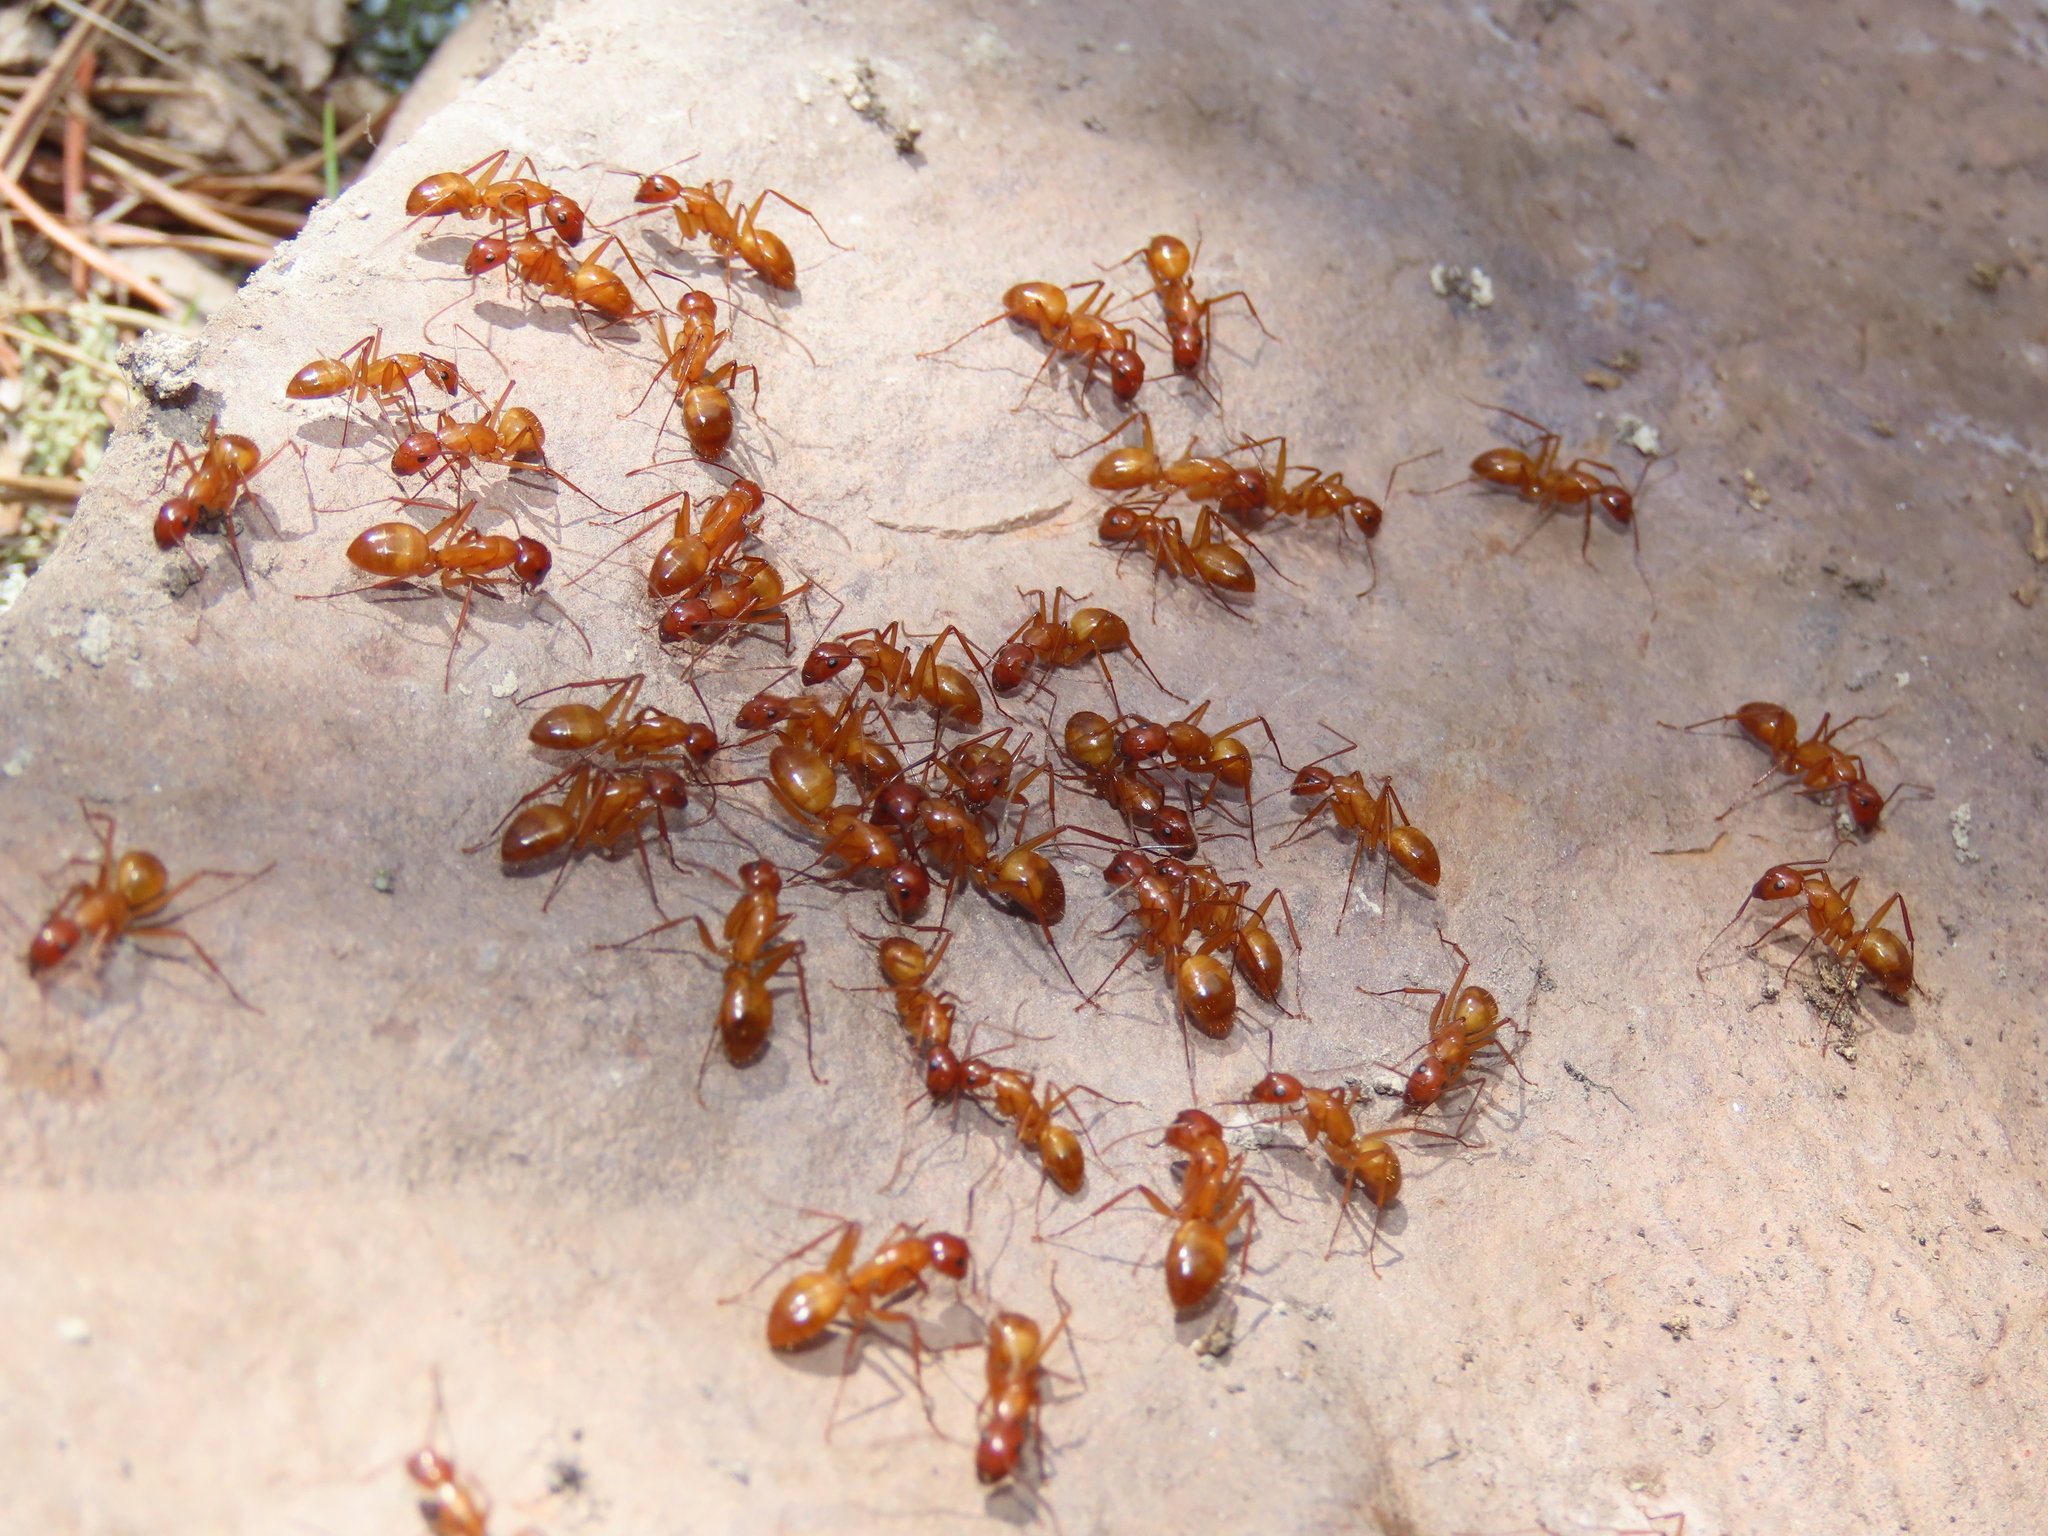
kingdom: Animalia
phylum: Arthropoda
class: Insecta
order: Hymenoptera
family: Formicidae
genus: Camponotus
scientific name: Camponotus castaneus
